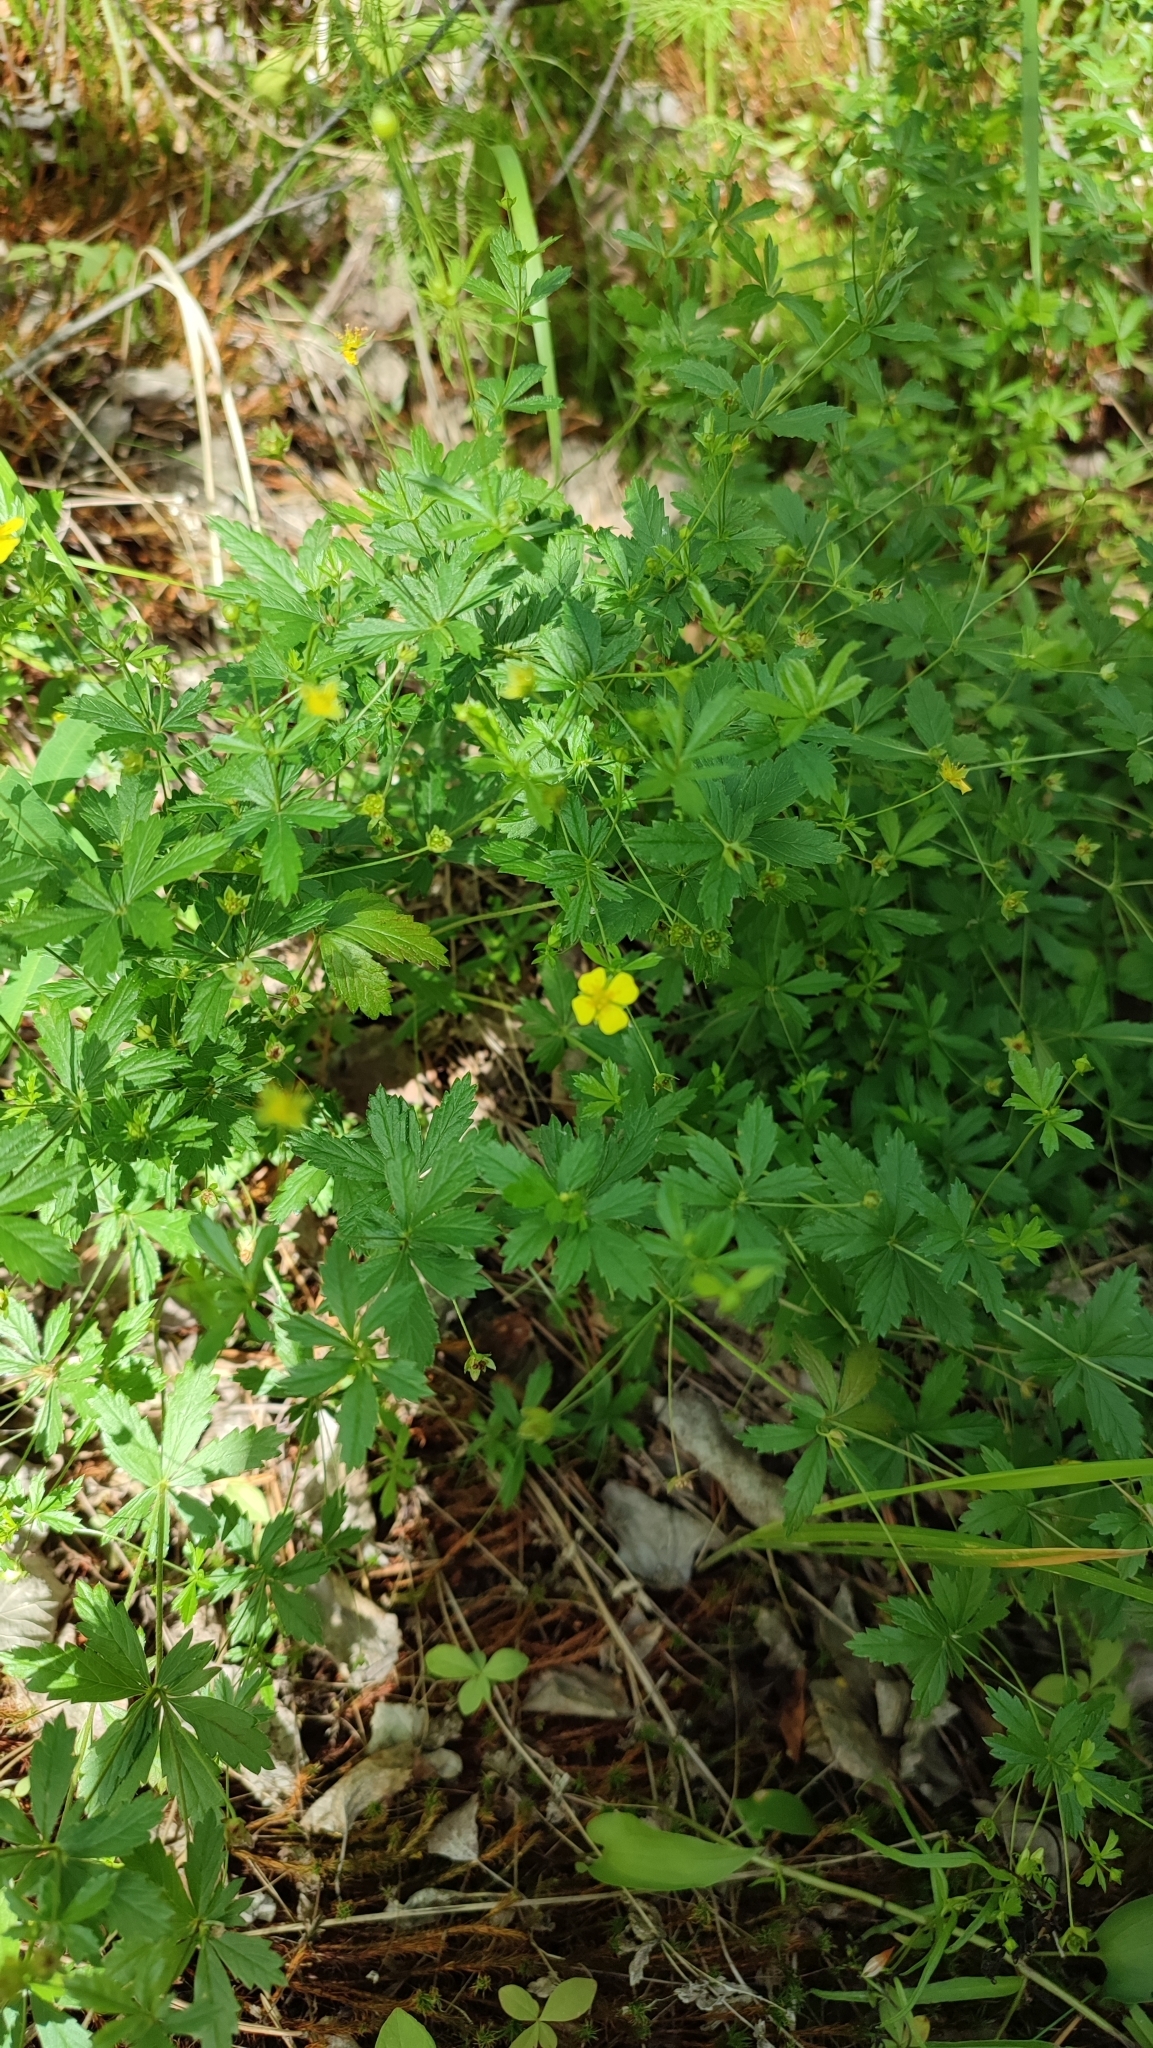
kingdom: Plantae
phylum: Tracheophyta
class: Magnoliopsida
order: Rosales
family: Rosaceae
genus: Potentilla
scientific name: Potentilla erecta
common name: Tormentil
